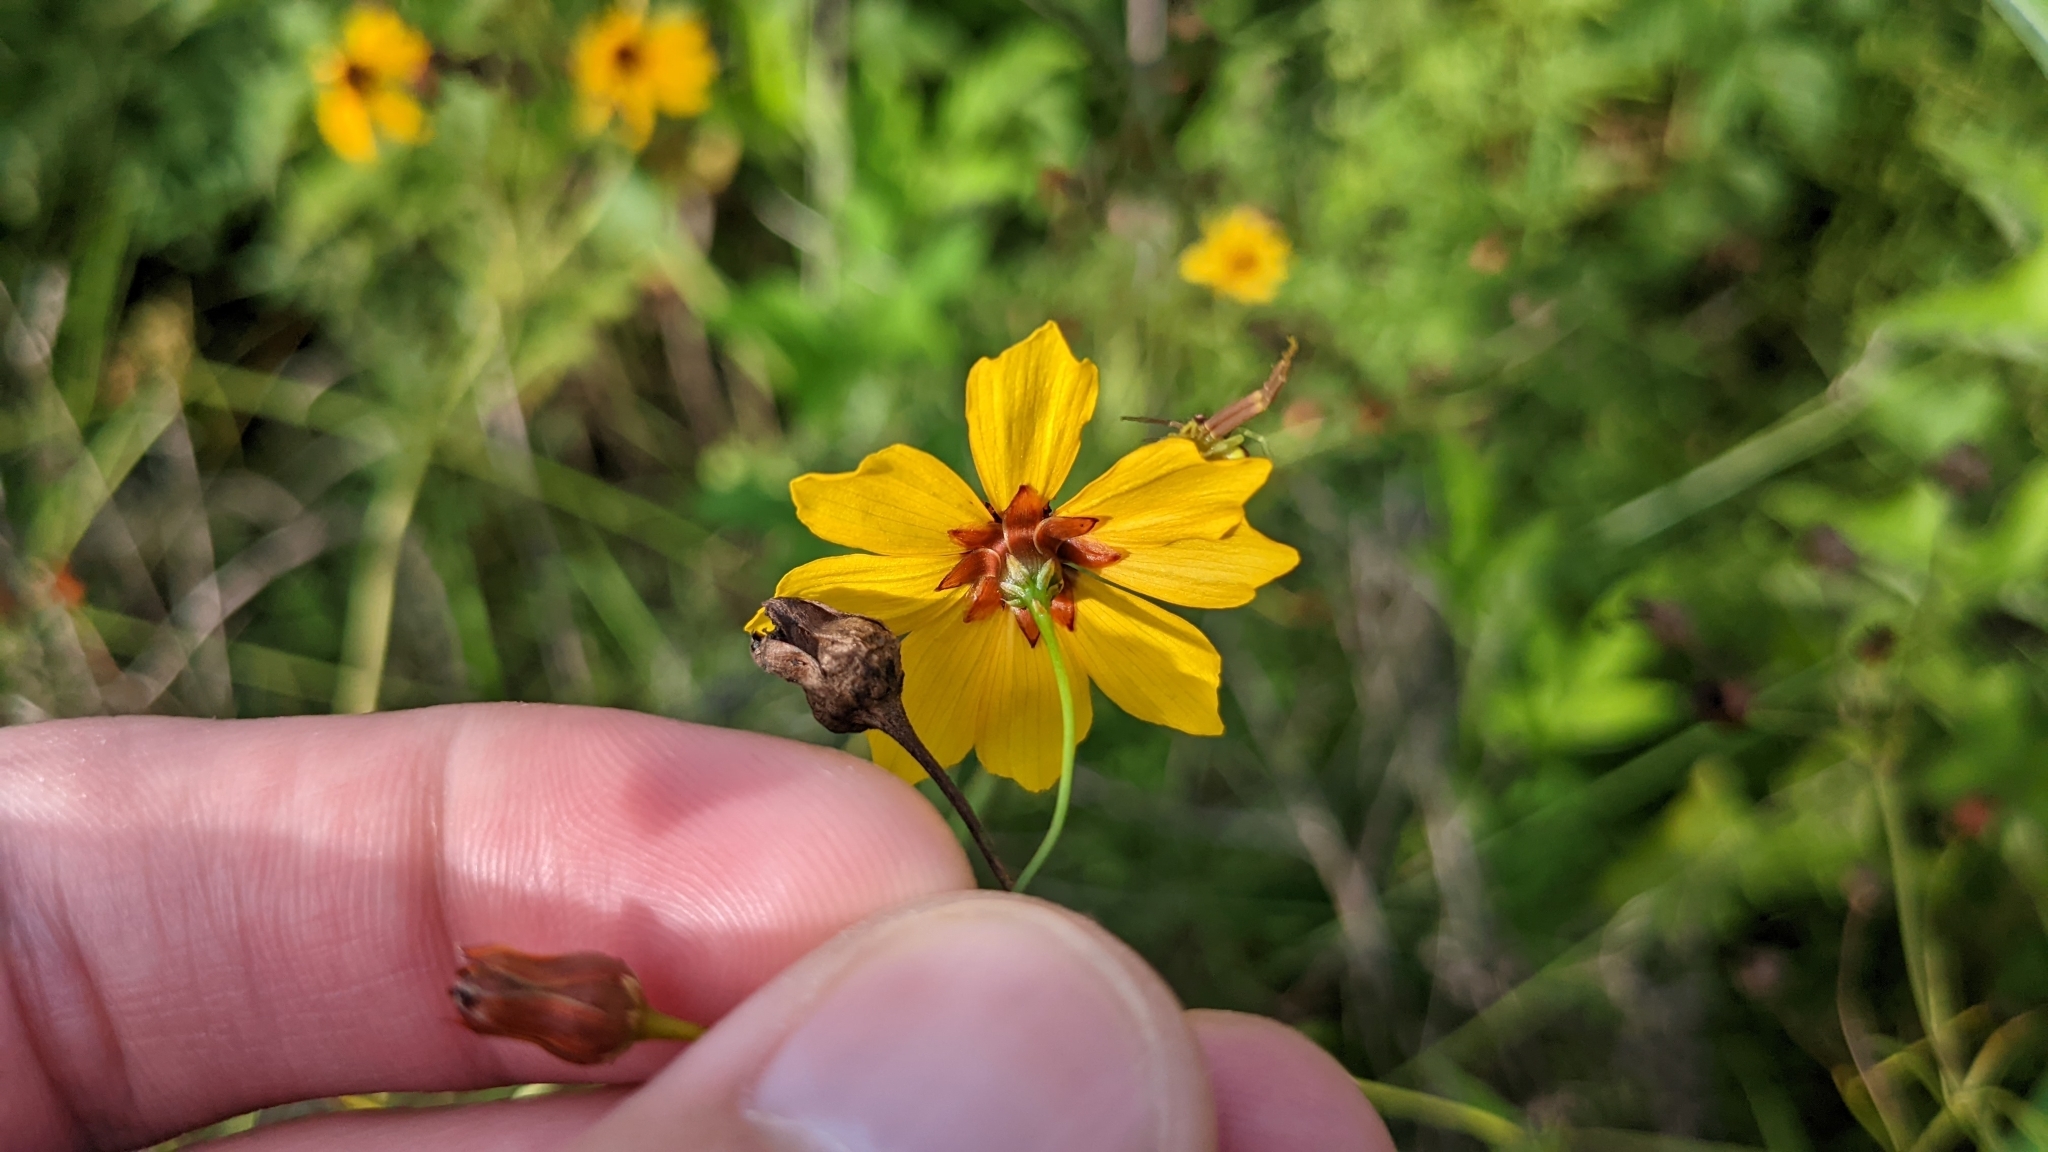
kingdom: Plantae
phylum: Tracheophyta
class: Magnoliopsida
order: Asterales
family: Asteraceae
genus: Coreopsis
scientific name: Coreopsis tinctoria
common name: Garden tickseed
